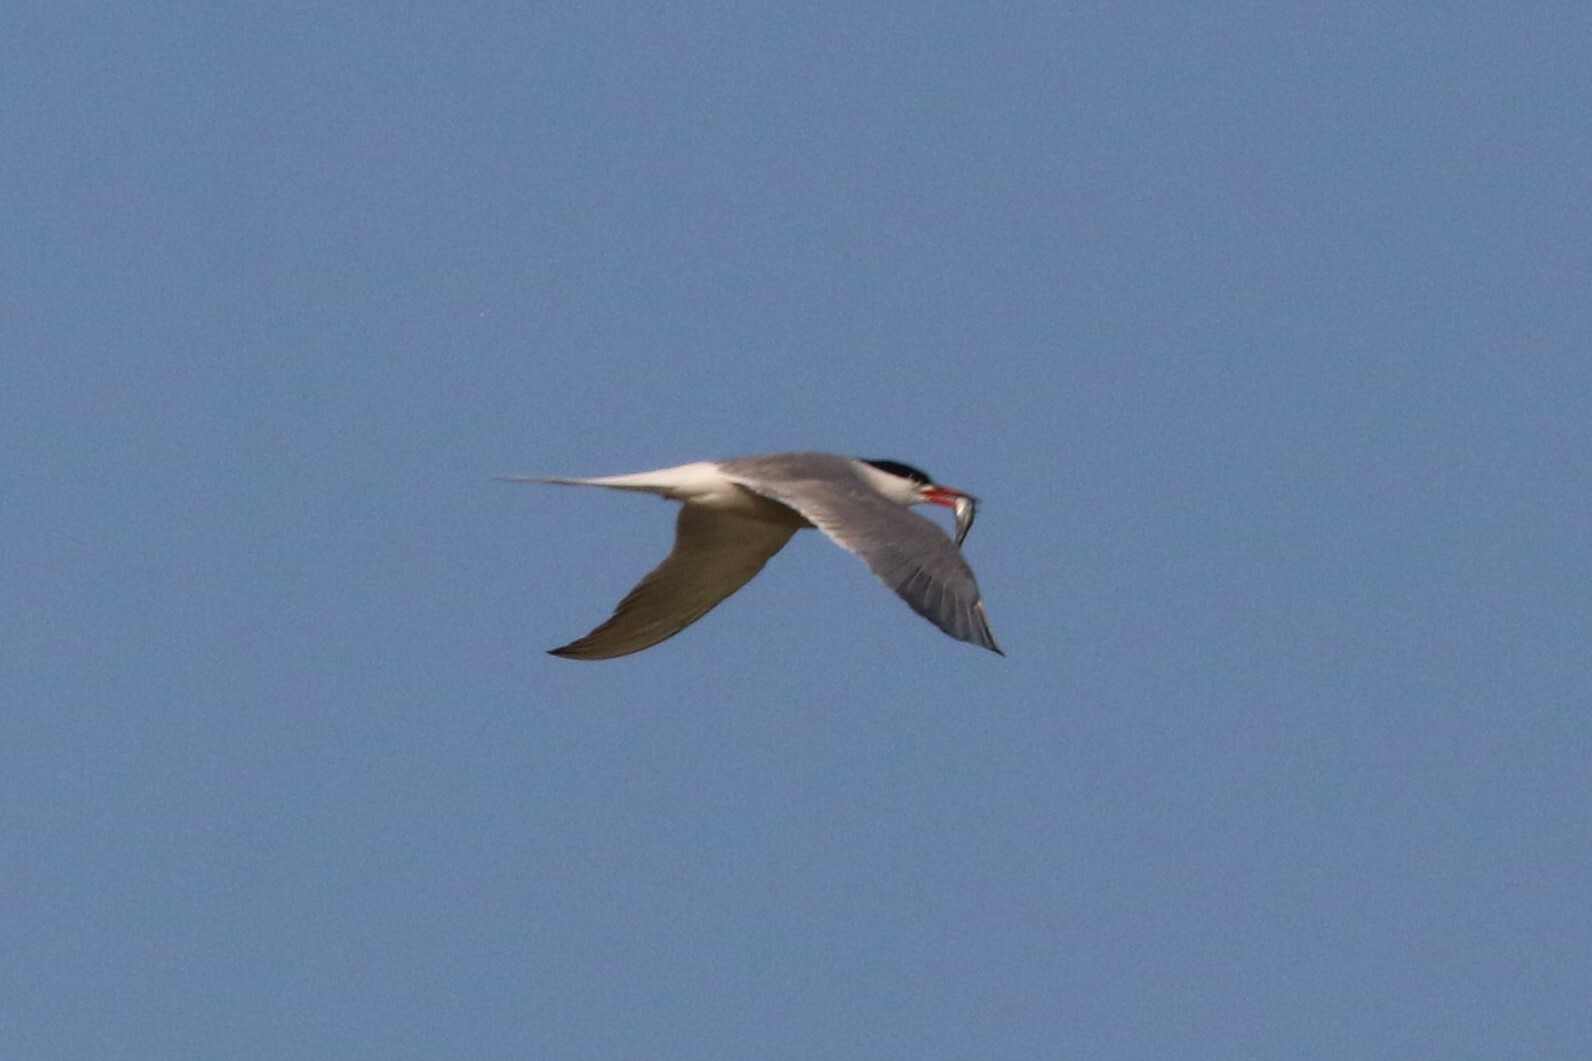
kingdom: Animalia
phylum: Chordata
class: Aves
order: Charadriiformes
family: Laridae
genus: Sterna
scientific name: Sterna hirundo
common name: Common tern
